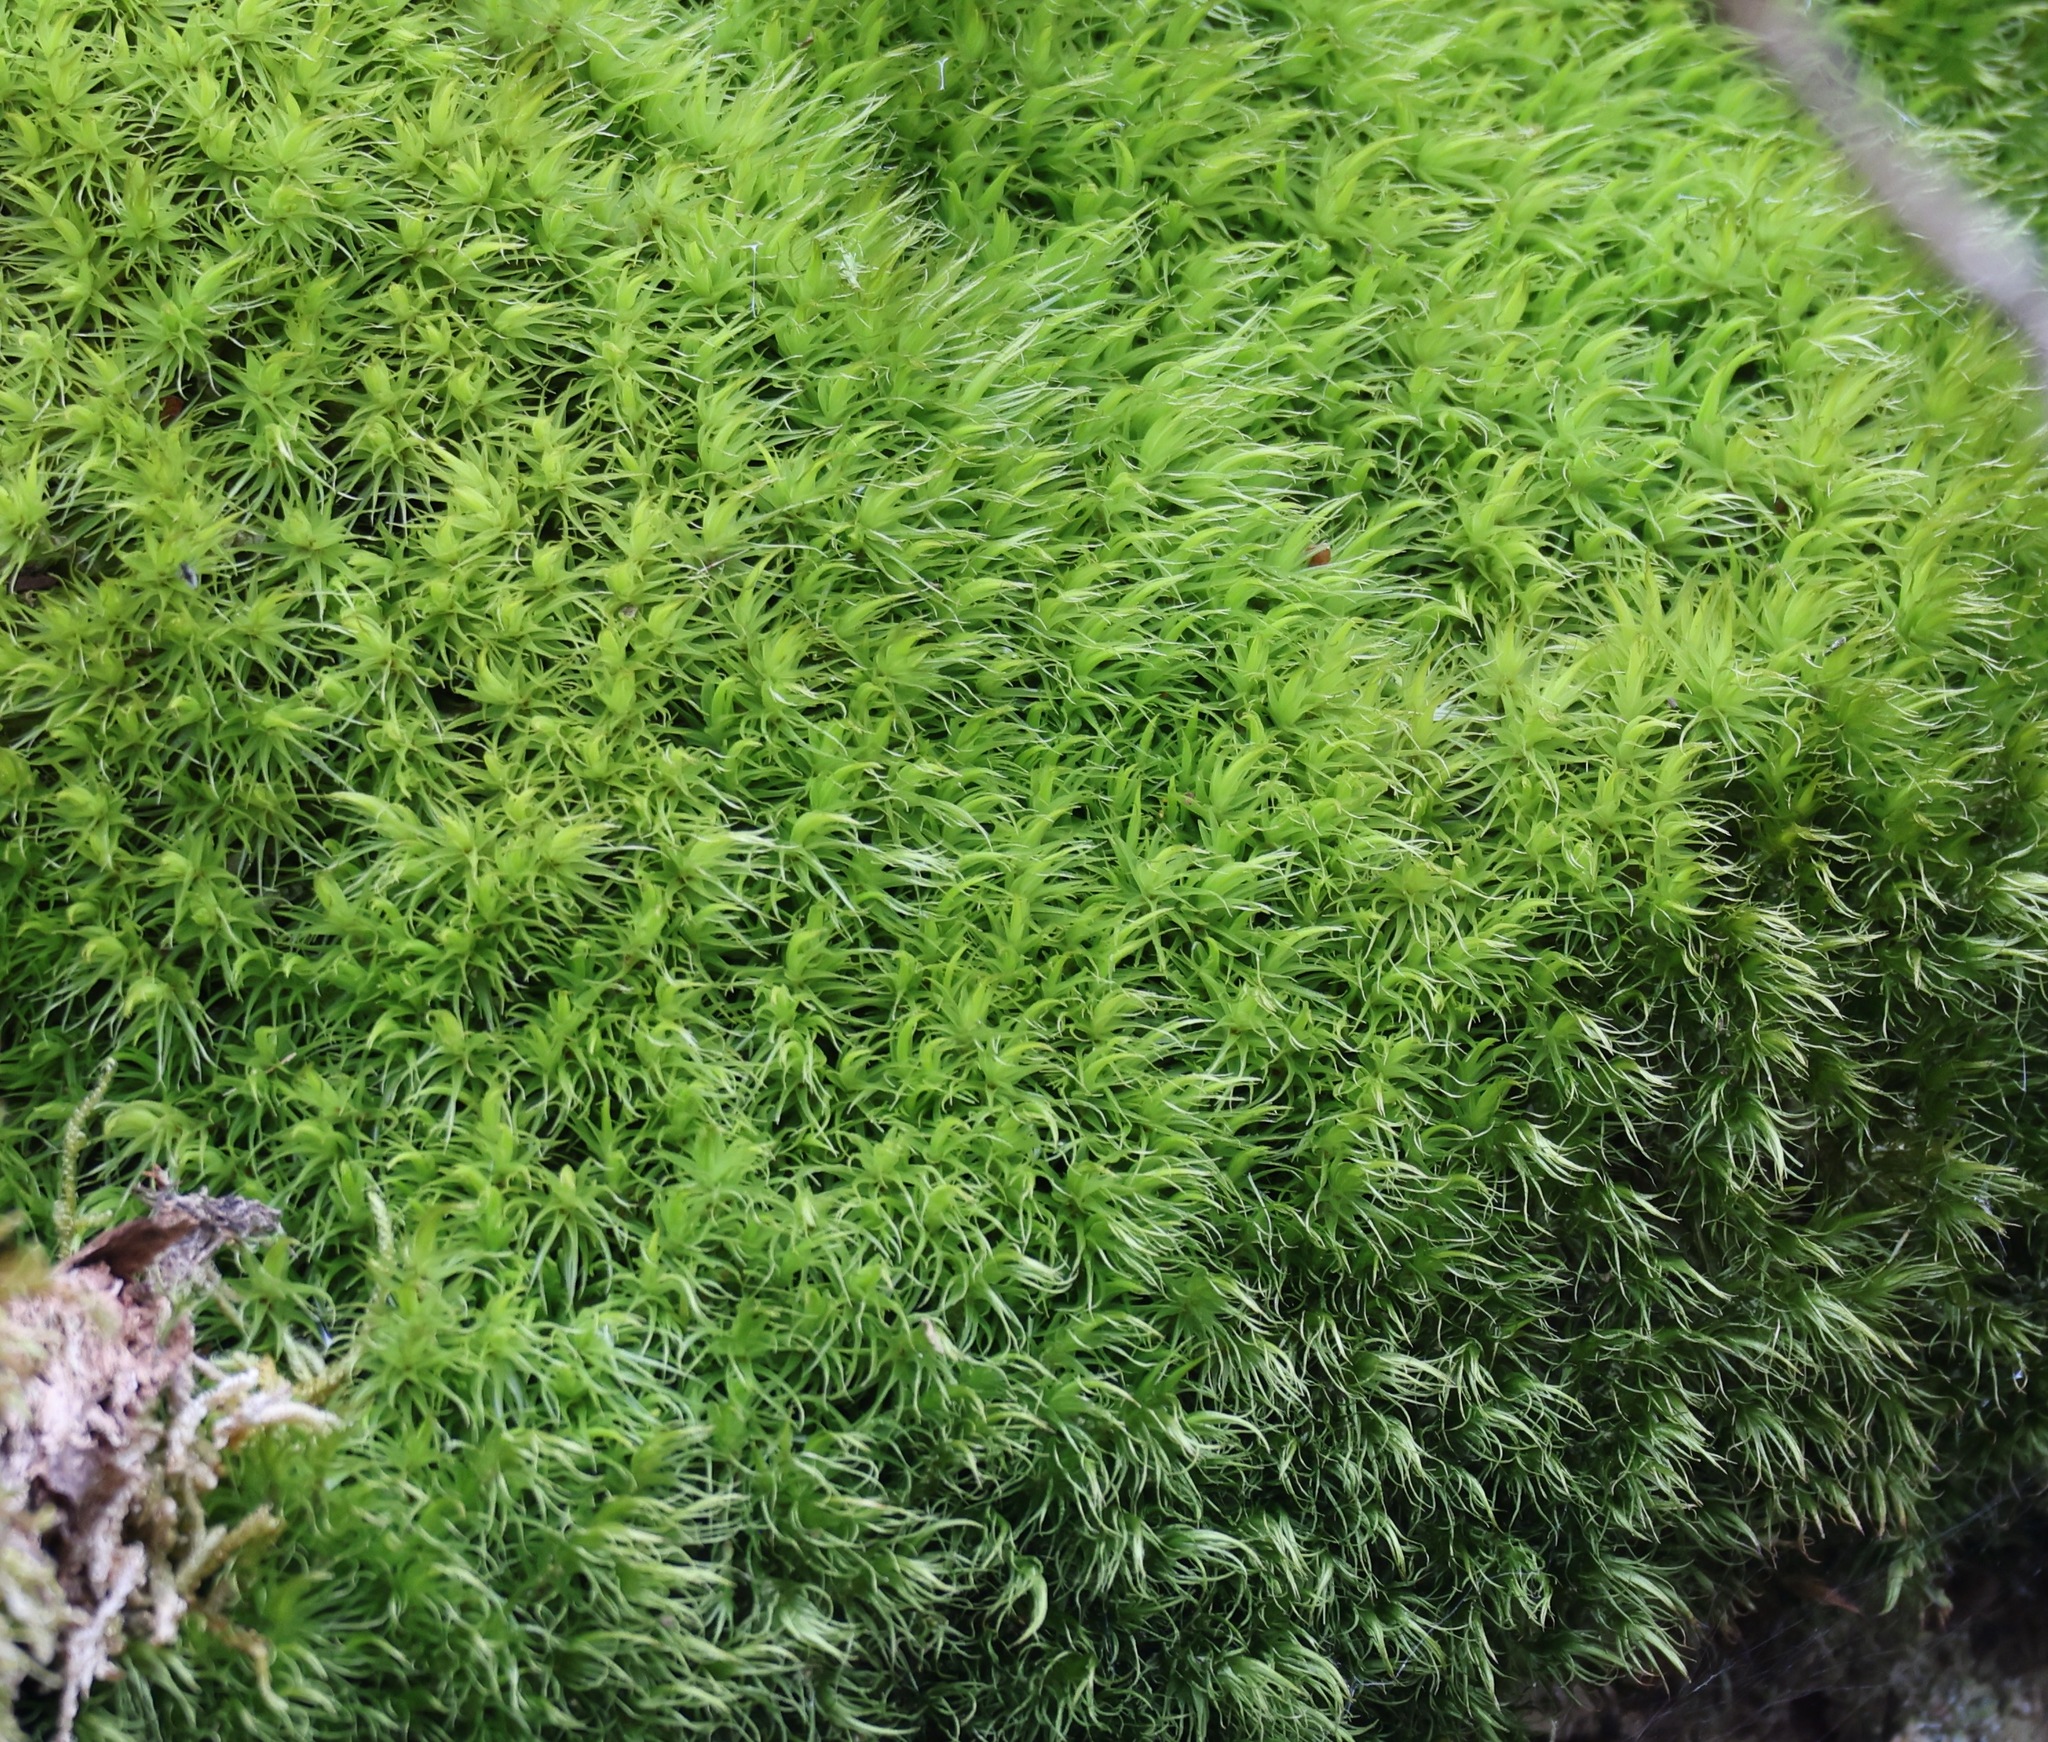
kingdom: Plantae
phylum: Bryophyta
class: Bryopsida
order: Dicranales
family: Dicranaceae
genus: Dicranum
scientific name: Dicranum scoparium
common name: Broom fork-moss
